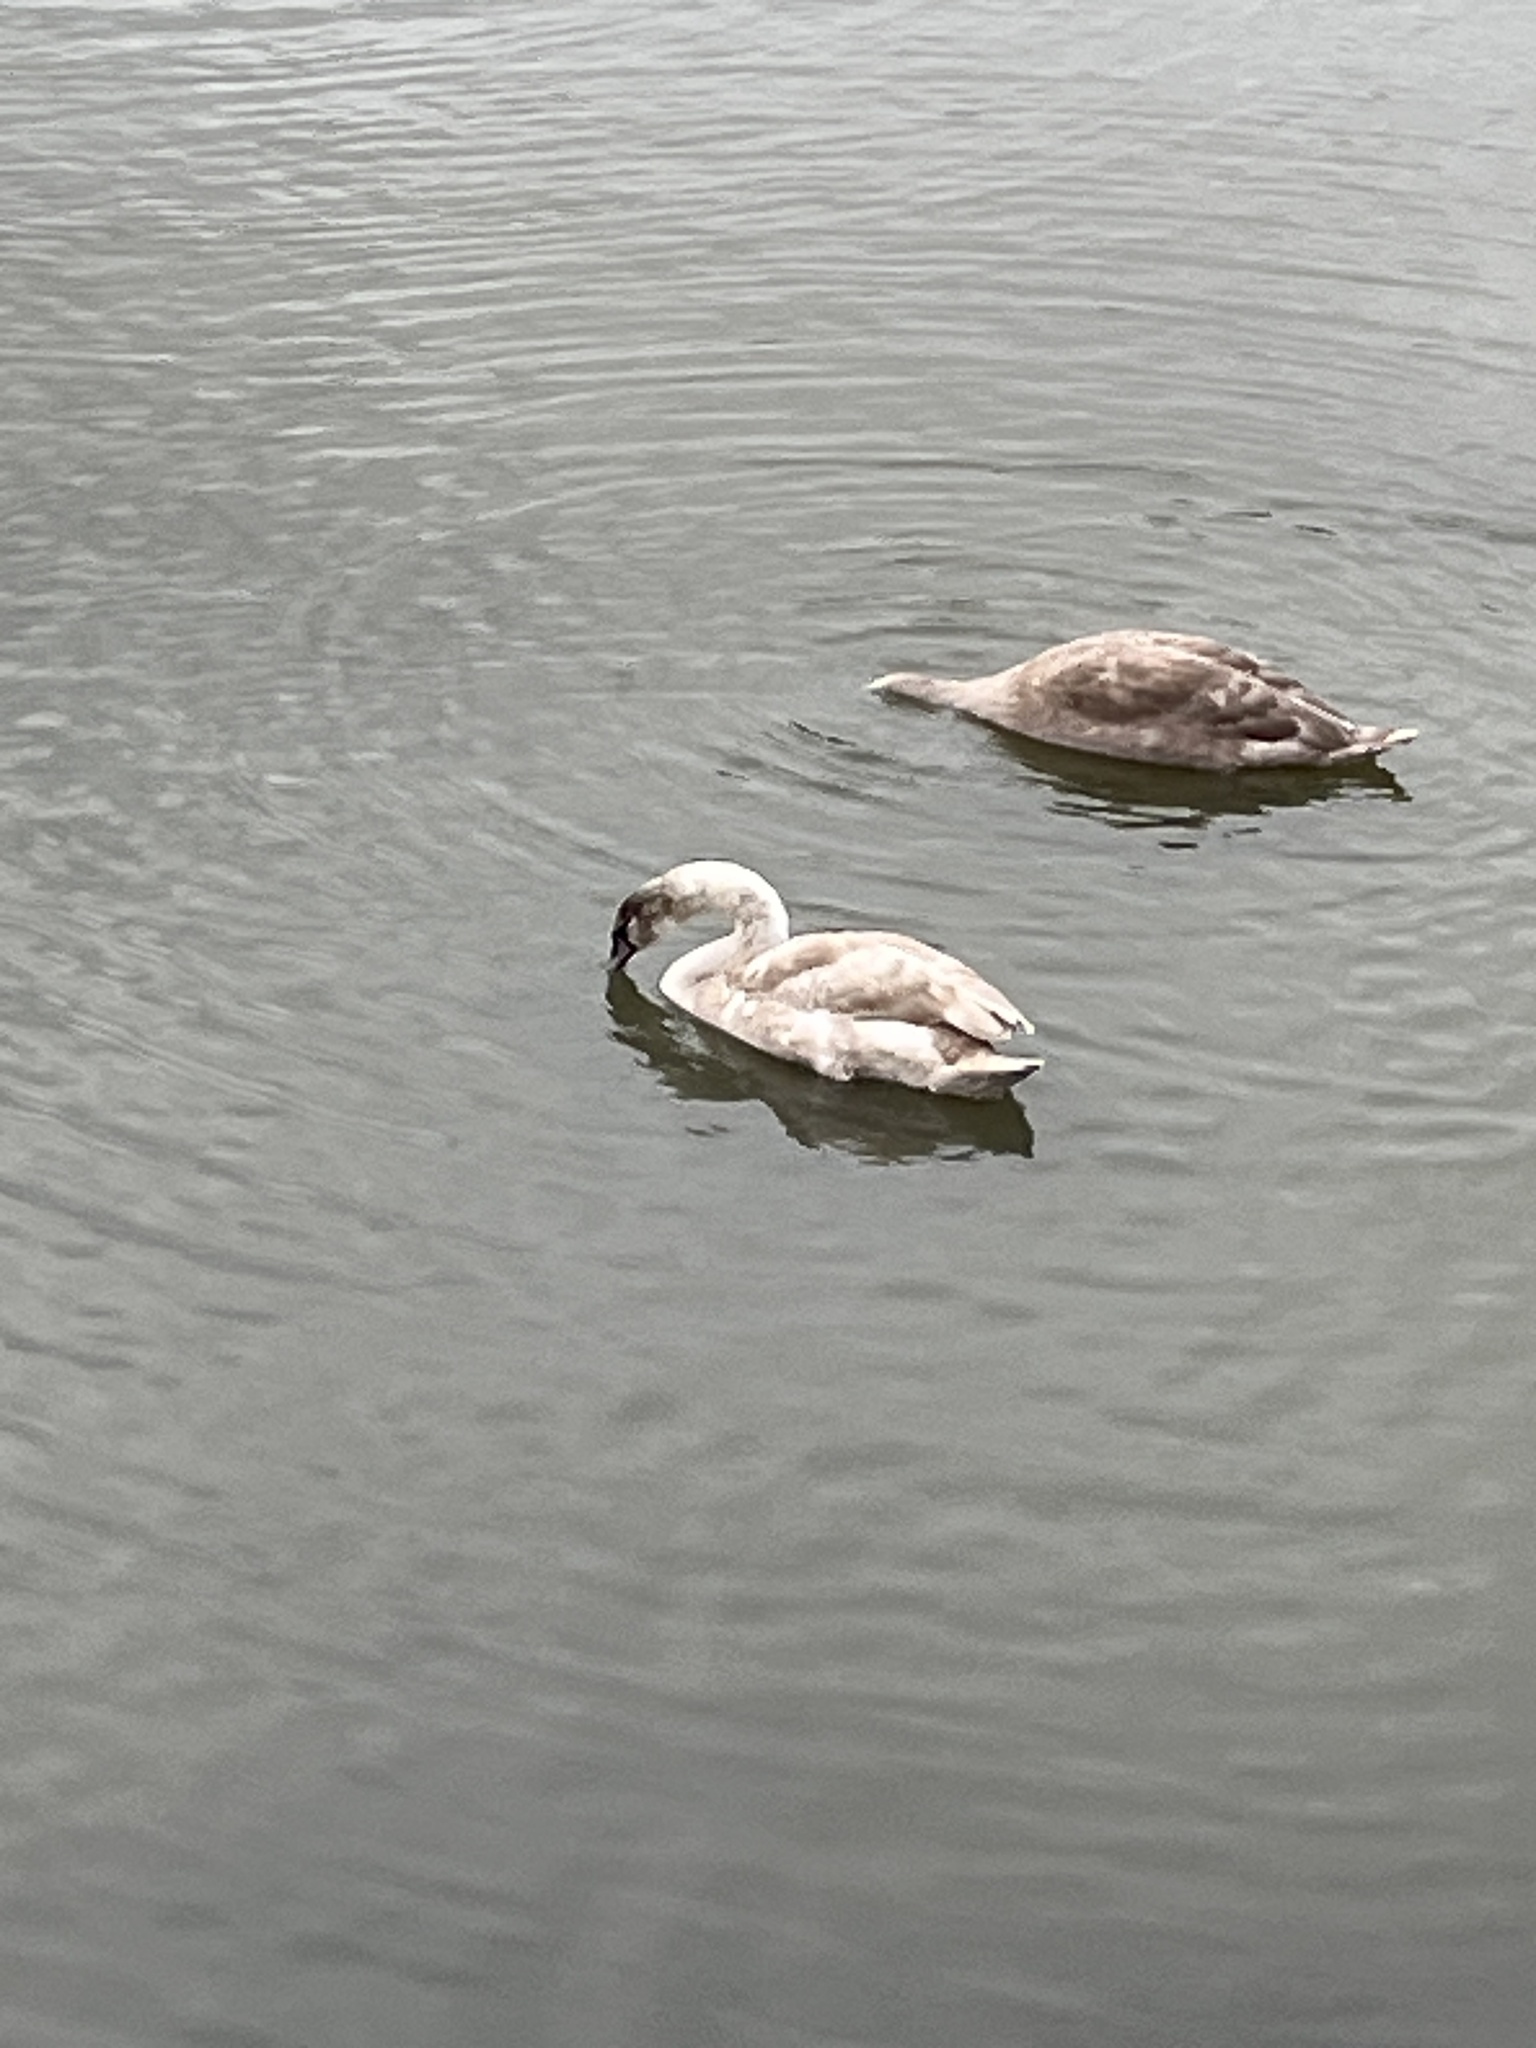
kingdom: Animalia
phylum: Chordata
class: Aves
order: Anseriformes
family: Anatidae
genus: Cygnus
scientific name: Cygnus olor
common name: Mute swan
